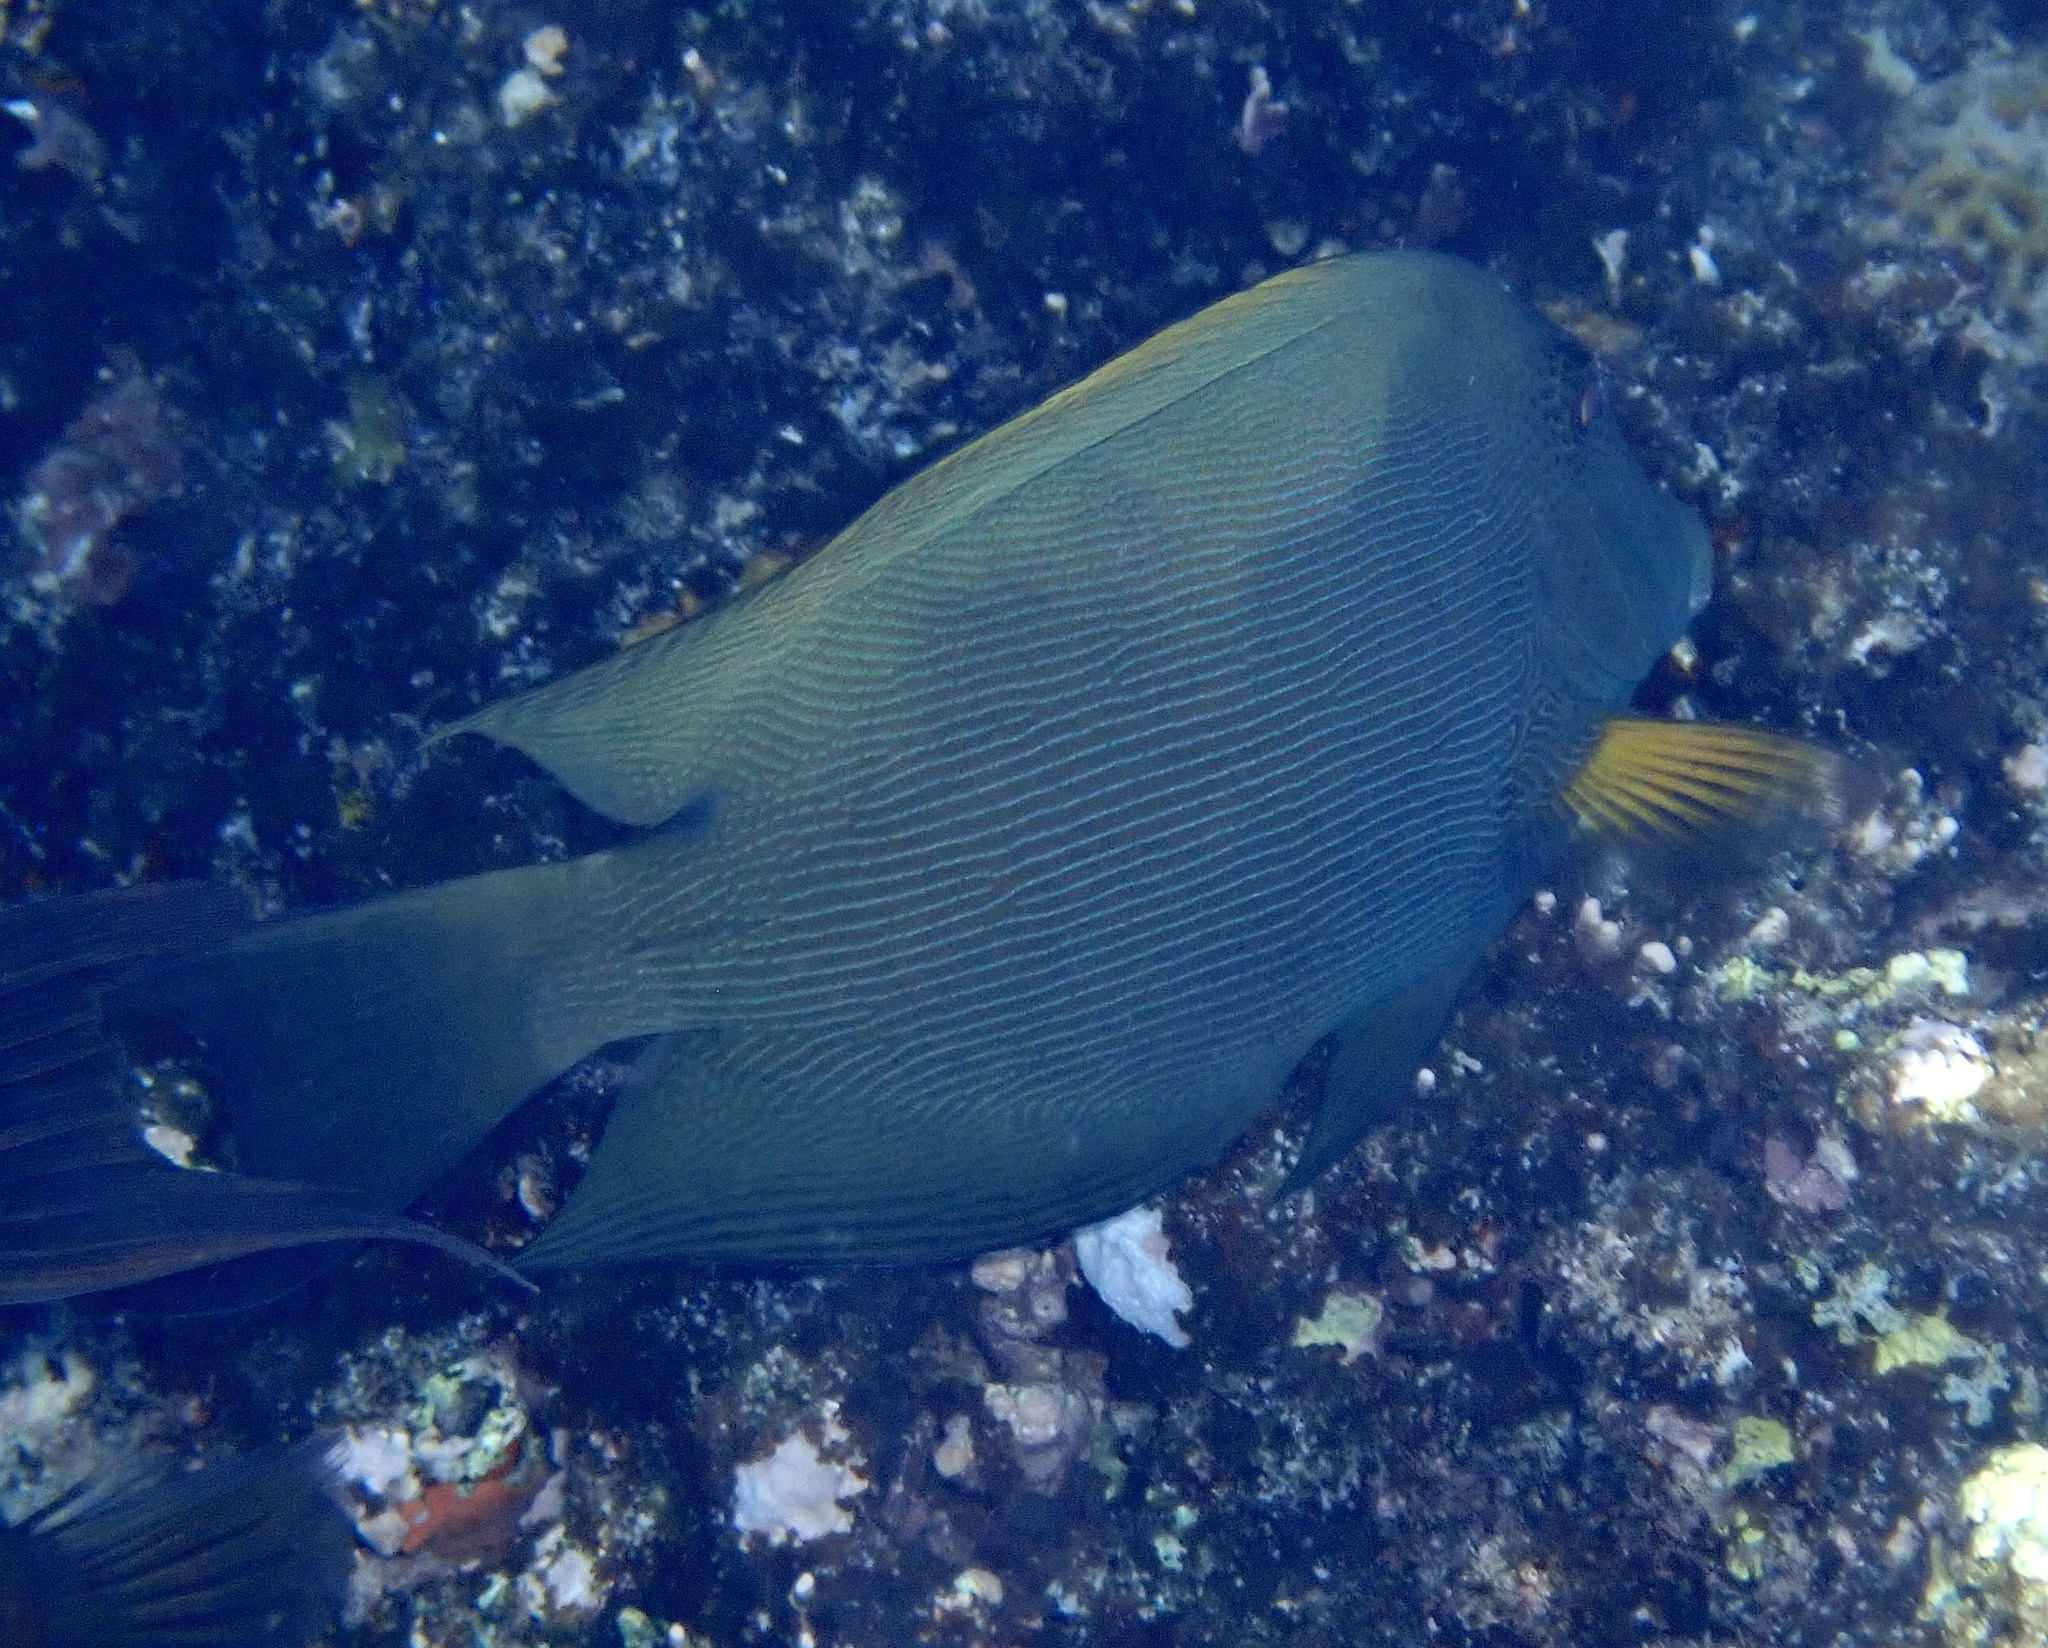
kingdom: Animalia
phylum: Chordata
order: Perciformes
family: Acanthuridae
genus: Ctenochaetus
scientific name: Ctenochaetus striatus
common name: Bristle-toothed surgeonfish
